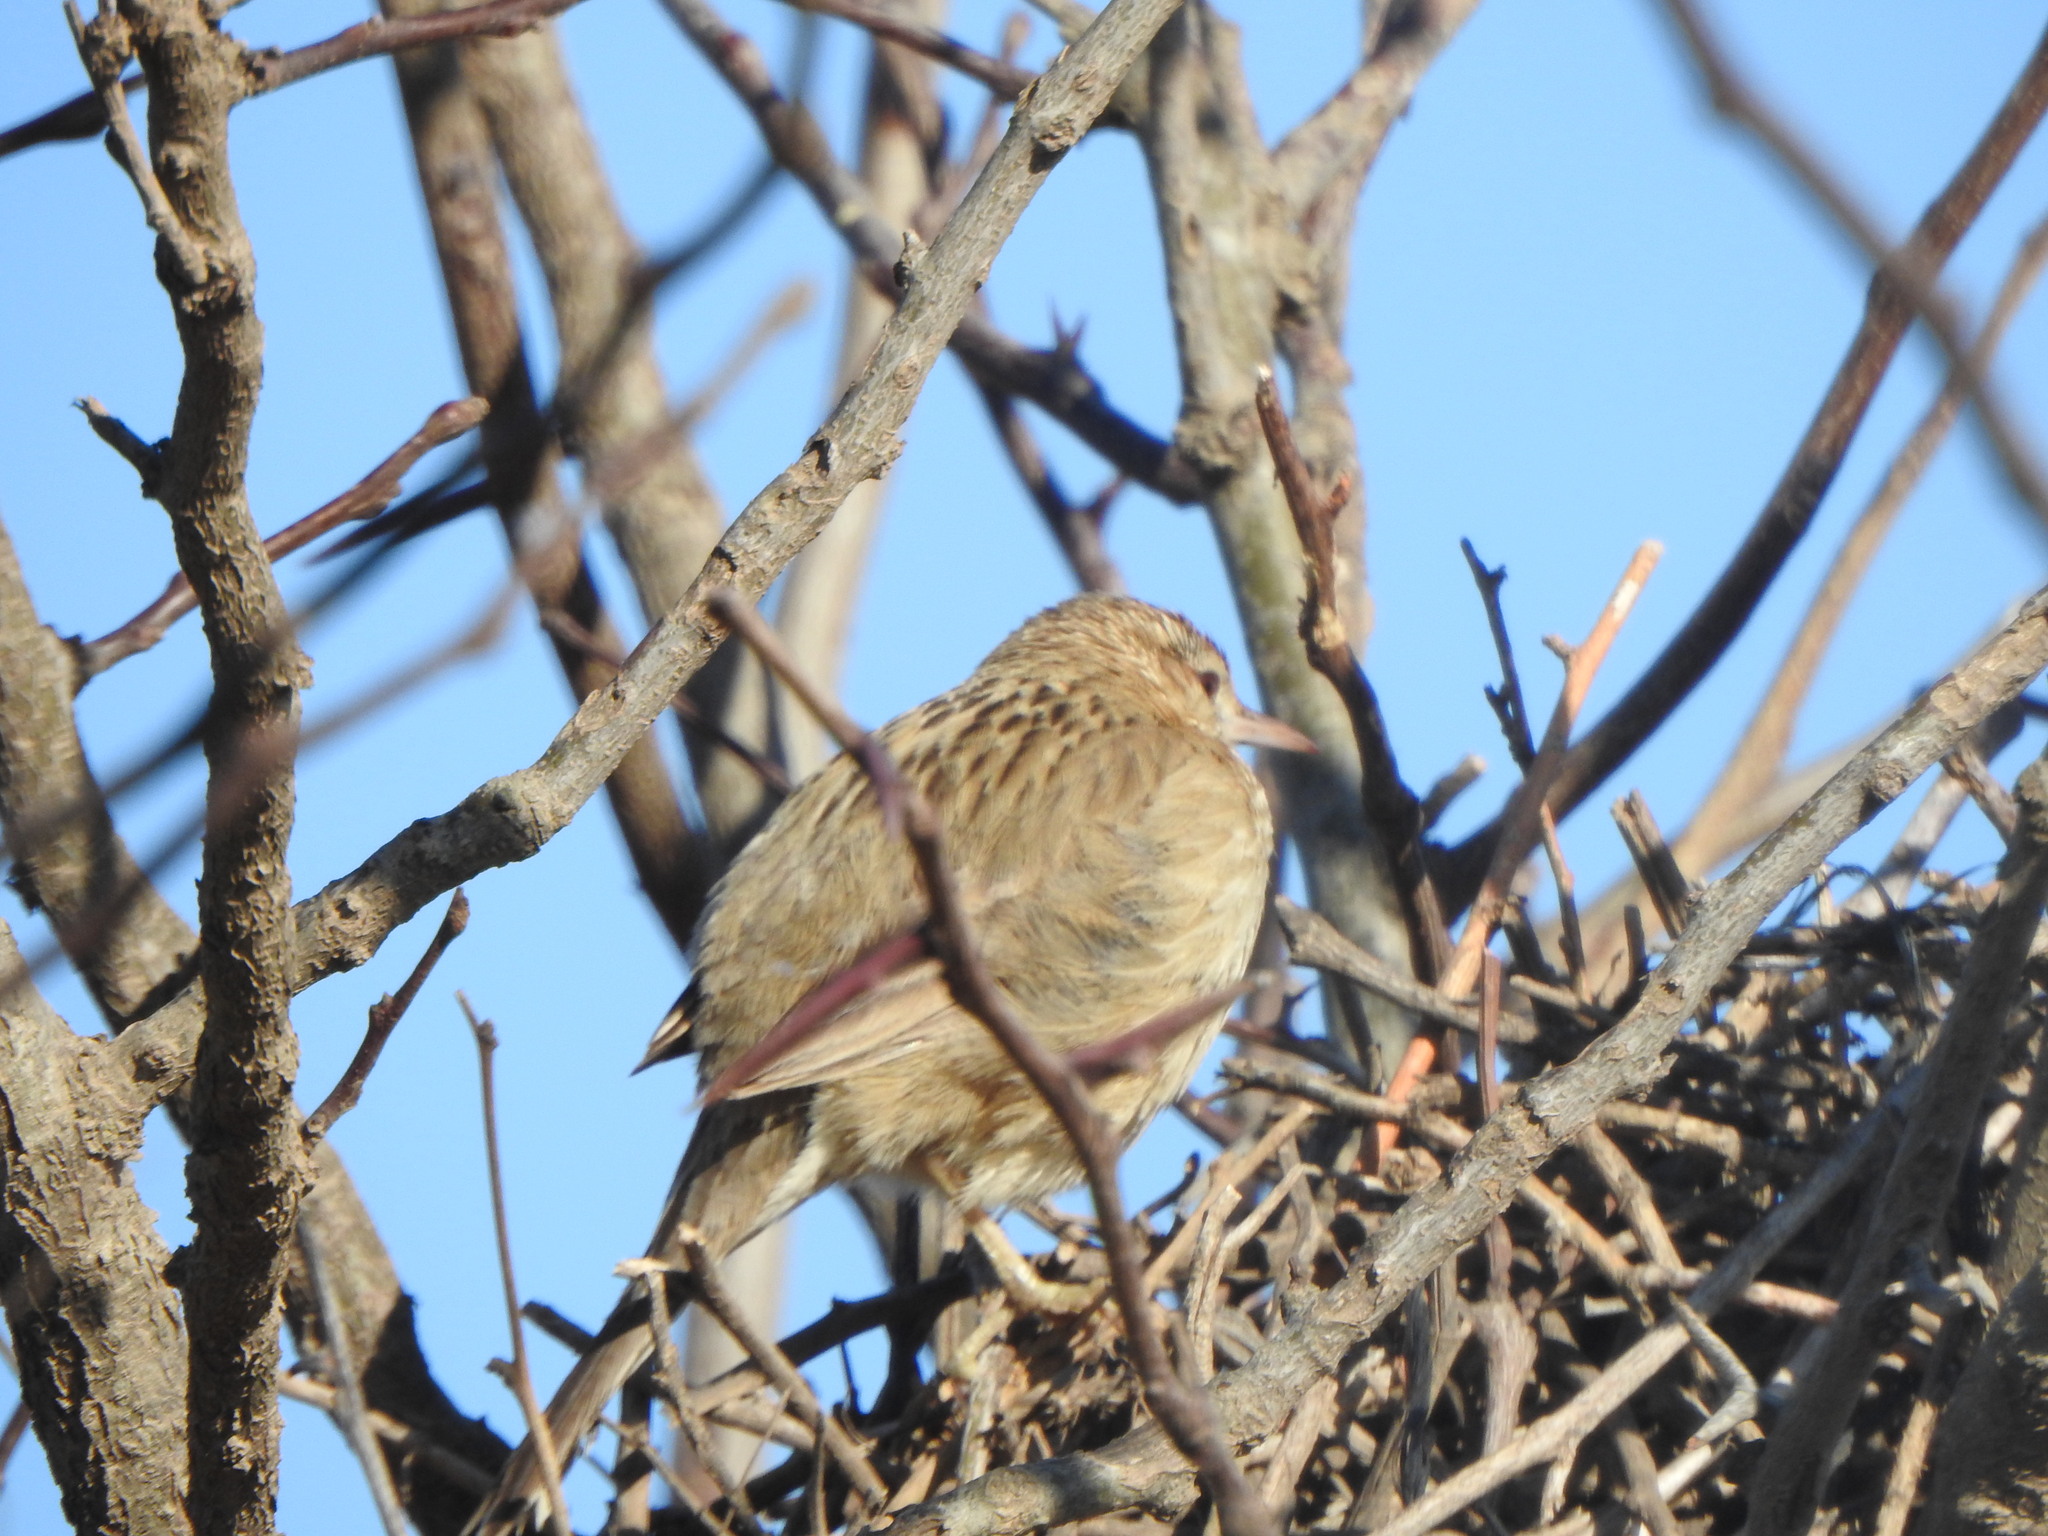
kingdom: Animalia
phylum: Chordata
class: Aves
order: Passeriformes
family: Furnariidae
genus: Anumbius
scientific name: Anumbius annumbi
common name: Firewood-gatherer
